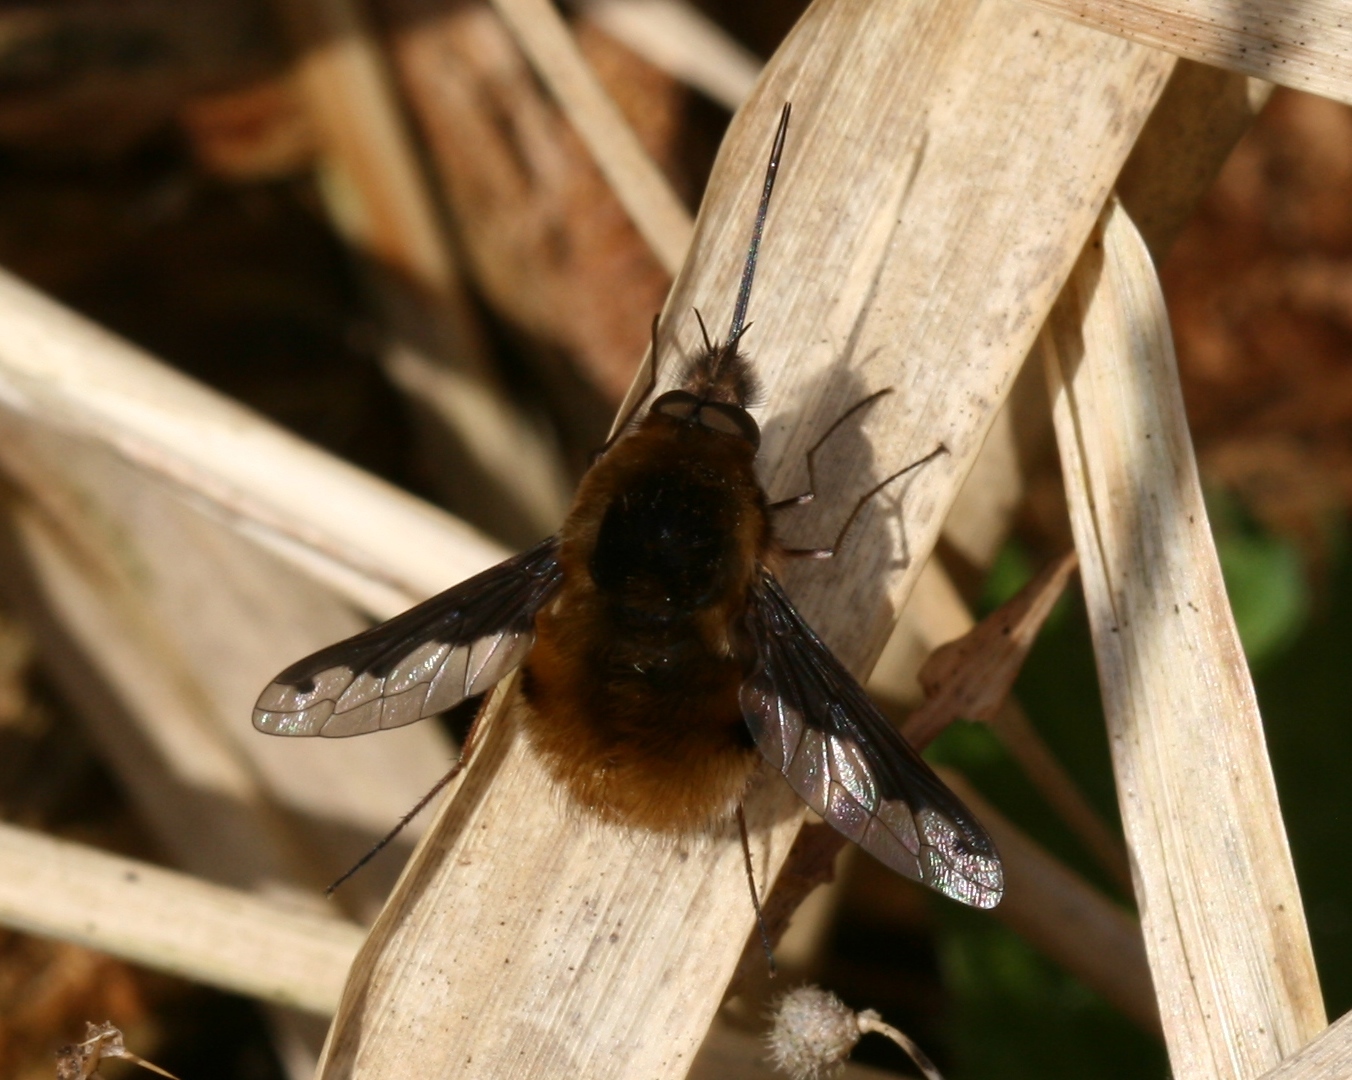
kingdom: Animalia
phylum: Arthropoda
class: Insecta
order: Diptera
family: Bombyliidae
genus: Bombylius
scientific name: Bombylius major
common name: Bee fly
